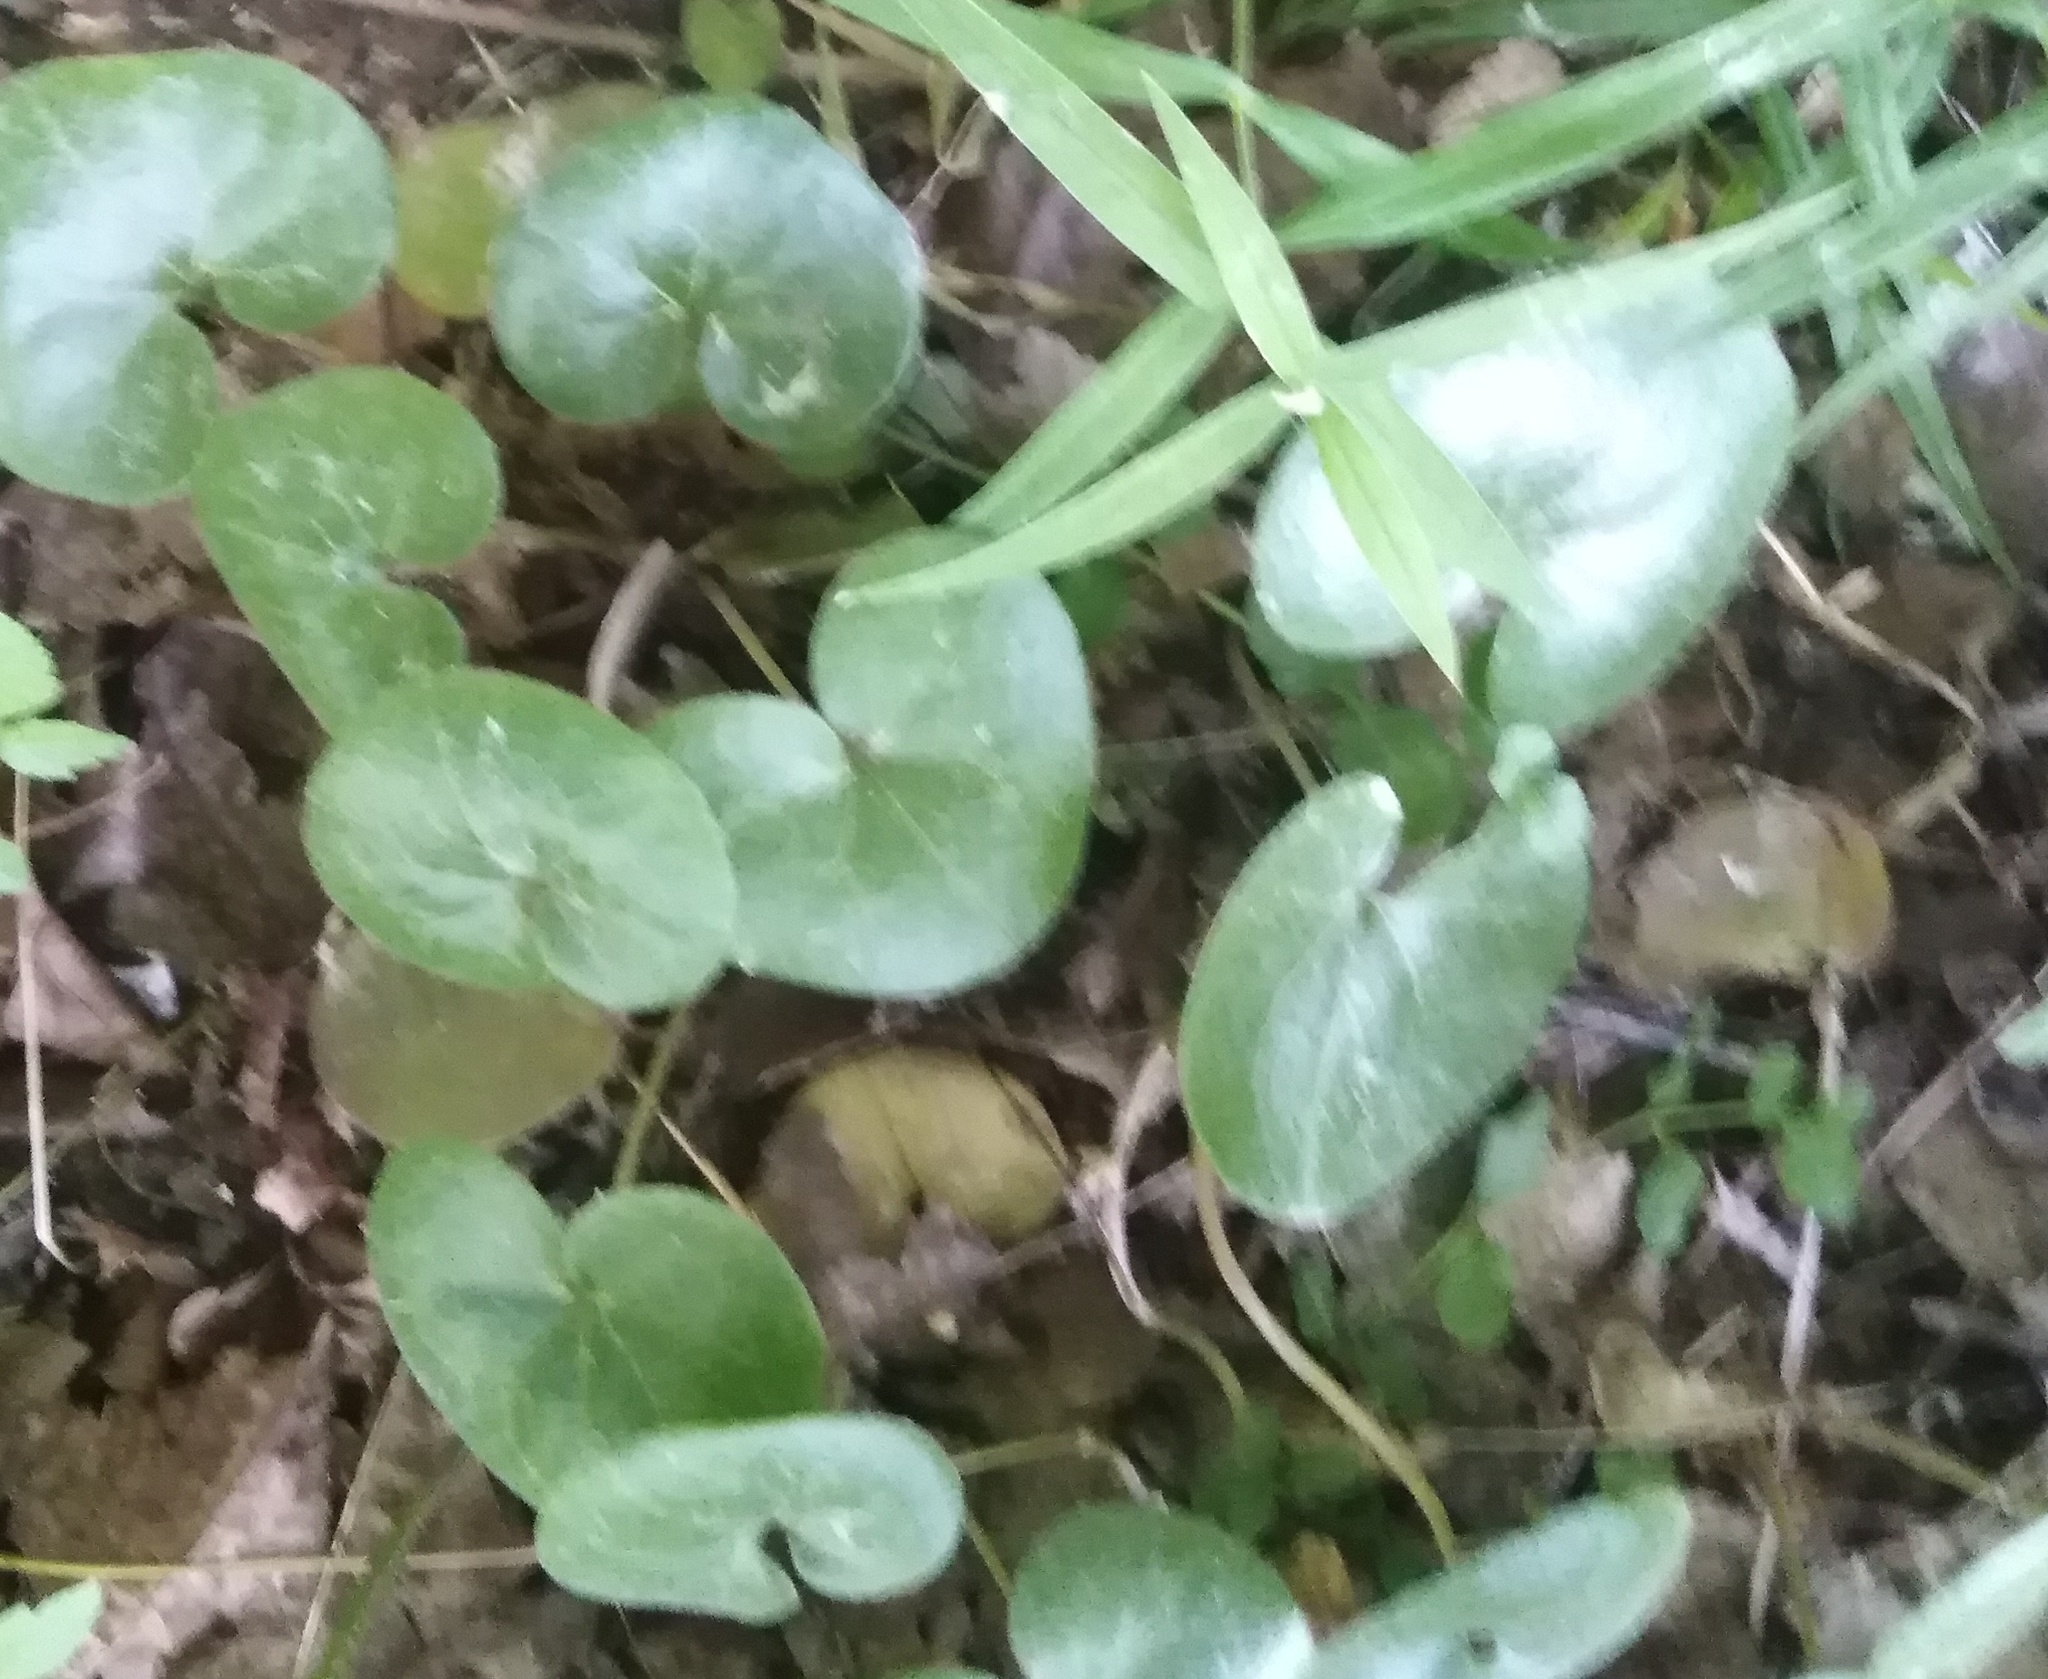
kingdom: Plantae
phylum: Tracheophyta
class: Magnoliopsida
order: Piperales
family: Aristolochiaceae
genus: Asarum
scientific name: Asarum europaeum
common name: Asarabacca
